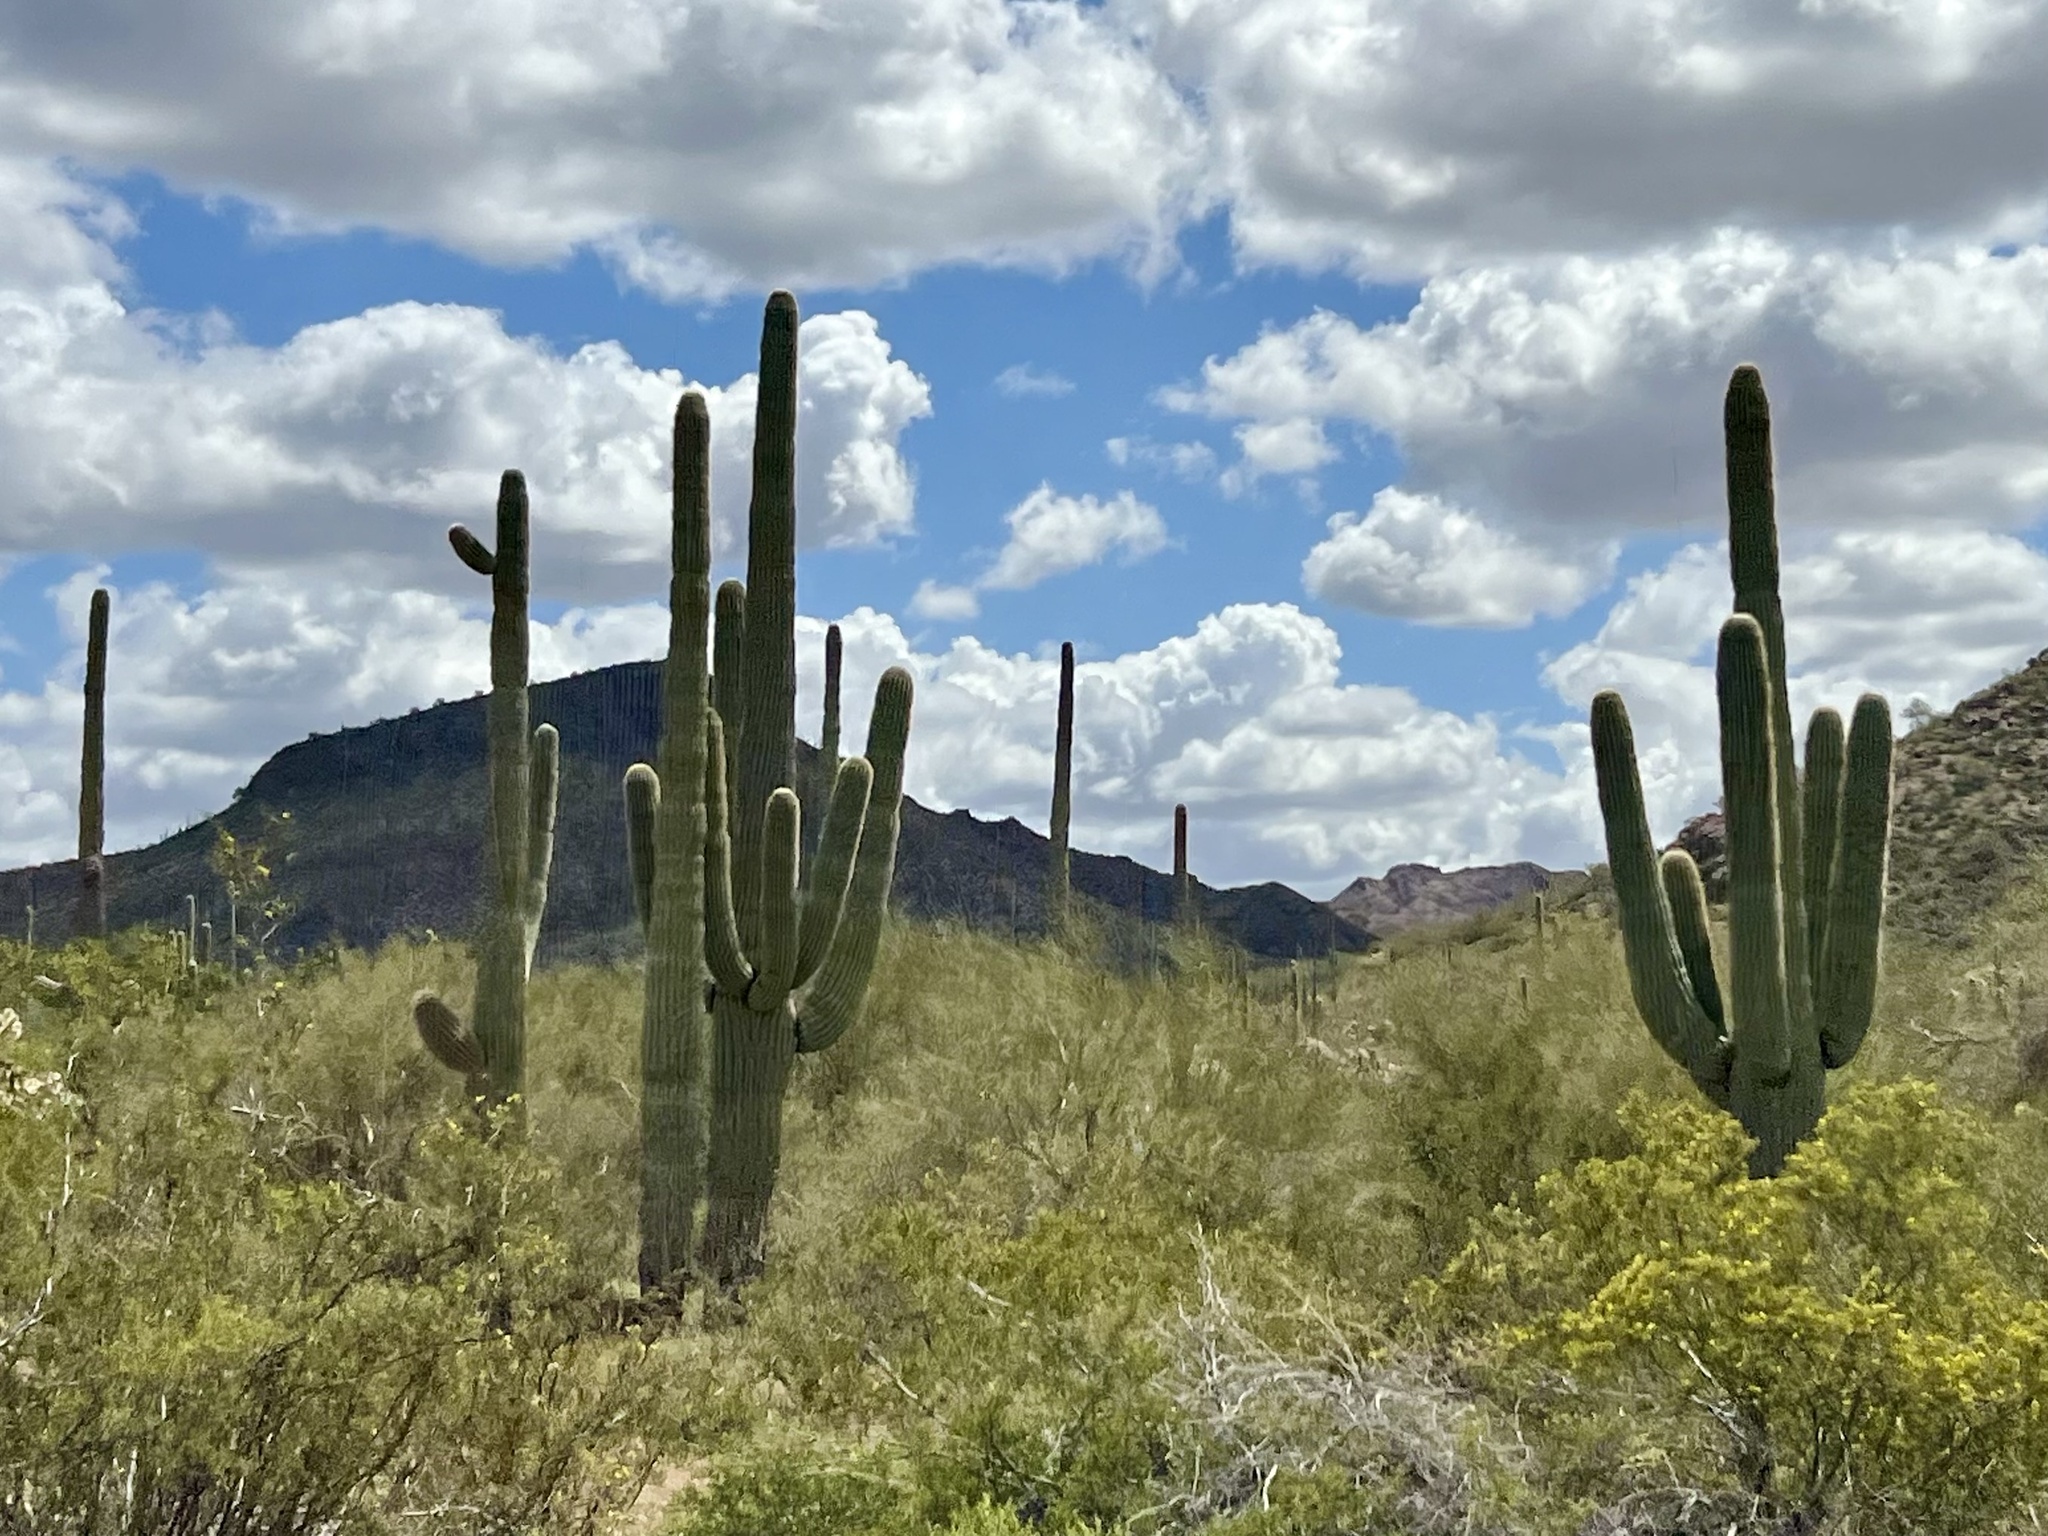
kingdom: Plantae
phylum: Tracheophyta
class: Magnoliopsida
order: Caryophyllales
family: Cactaceae
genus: Carnegiea
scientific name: Carnegiea gigantea
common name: Saguaro
